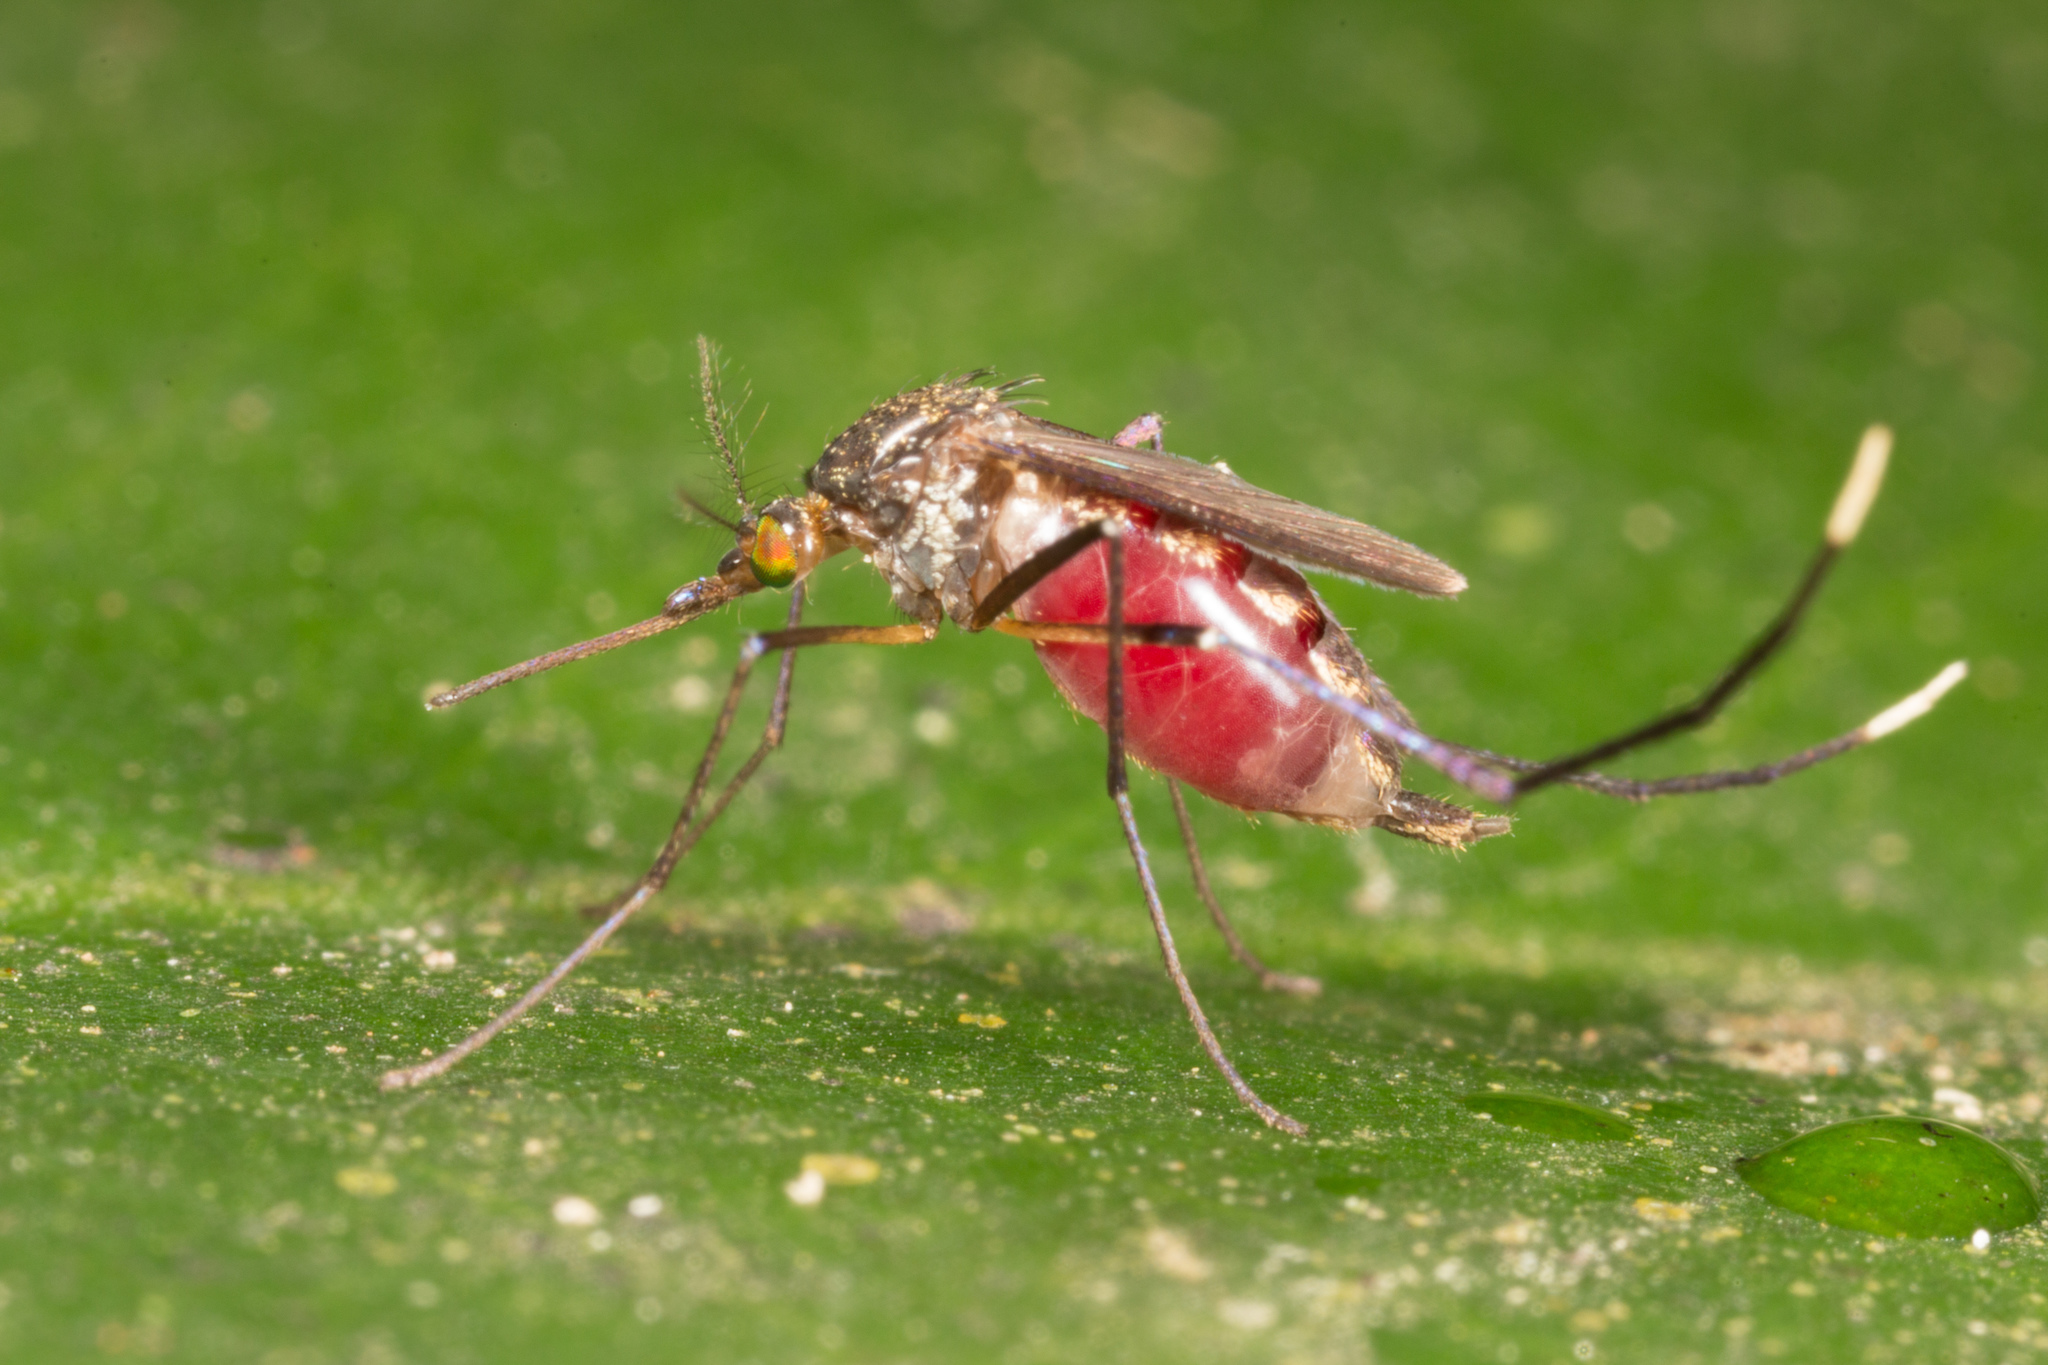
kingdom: Animalia
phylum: Arthropoda
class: Insecta
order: Diptera
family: Culicidae
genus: Psorophora
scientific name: Psorophora ferox
